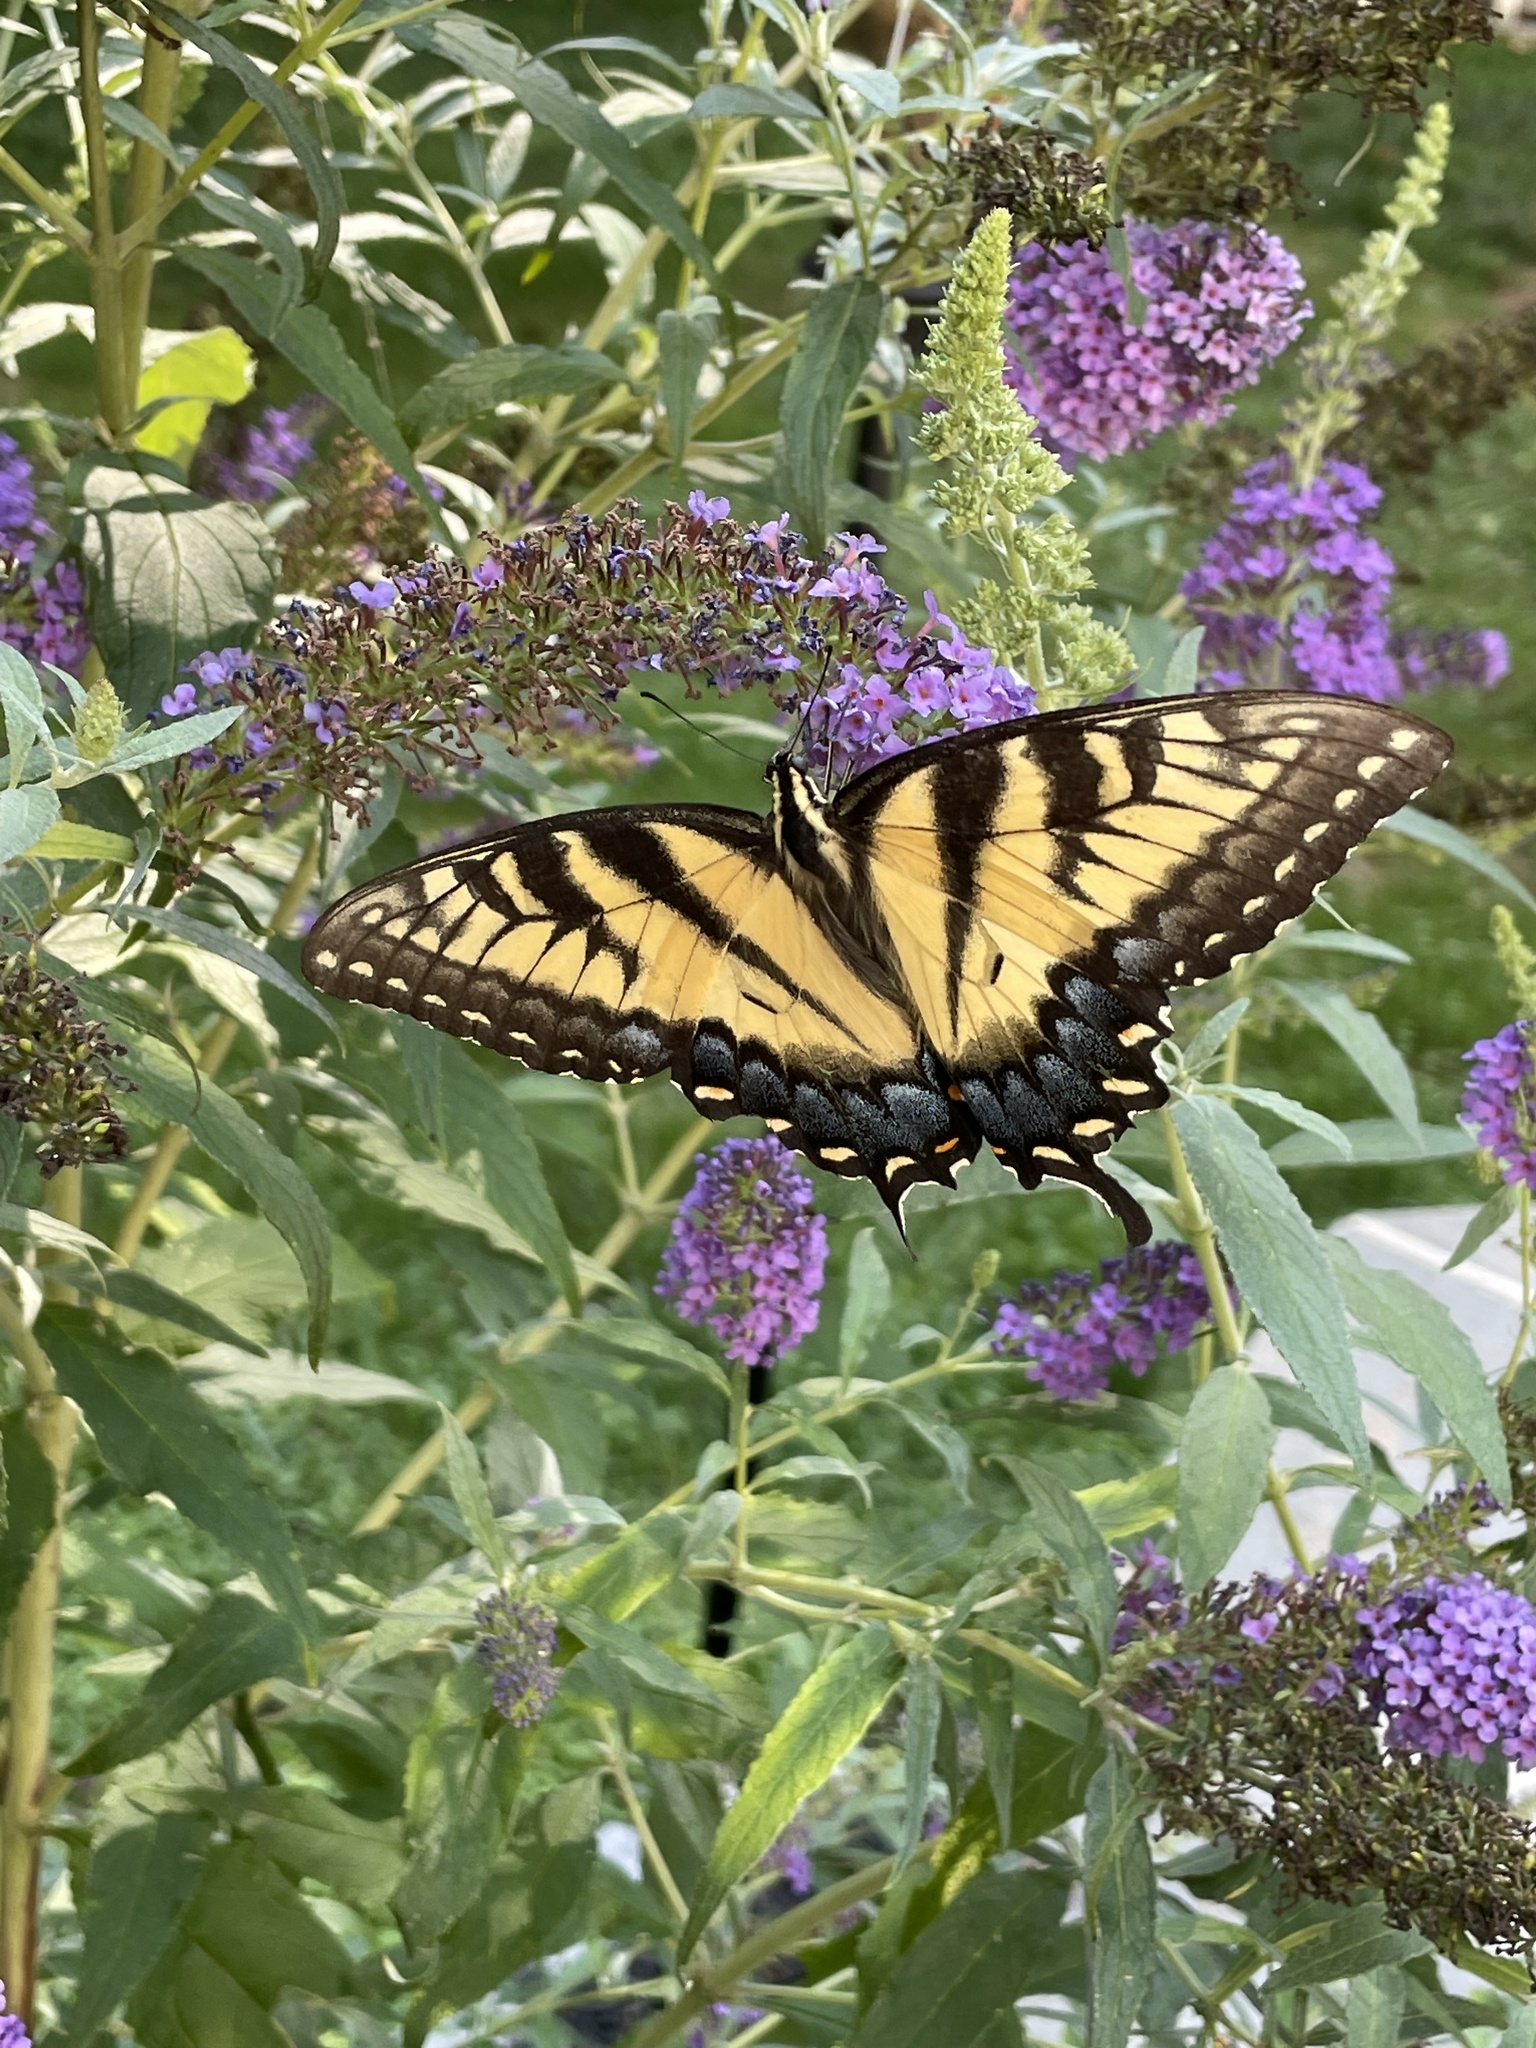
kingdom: Animalia
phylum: Arthropoda
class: Insecta
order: Lepidoptera
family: Papilionidae
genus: Papilio
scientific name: Papilio glaucus
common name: Tiger swallowtail
